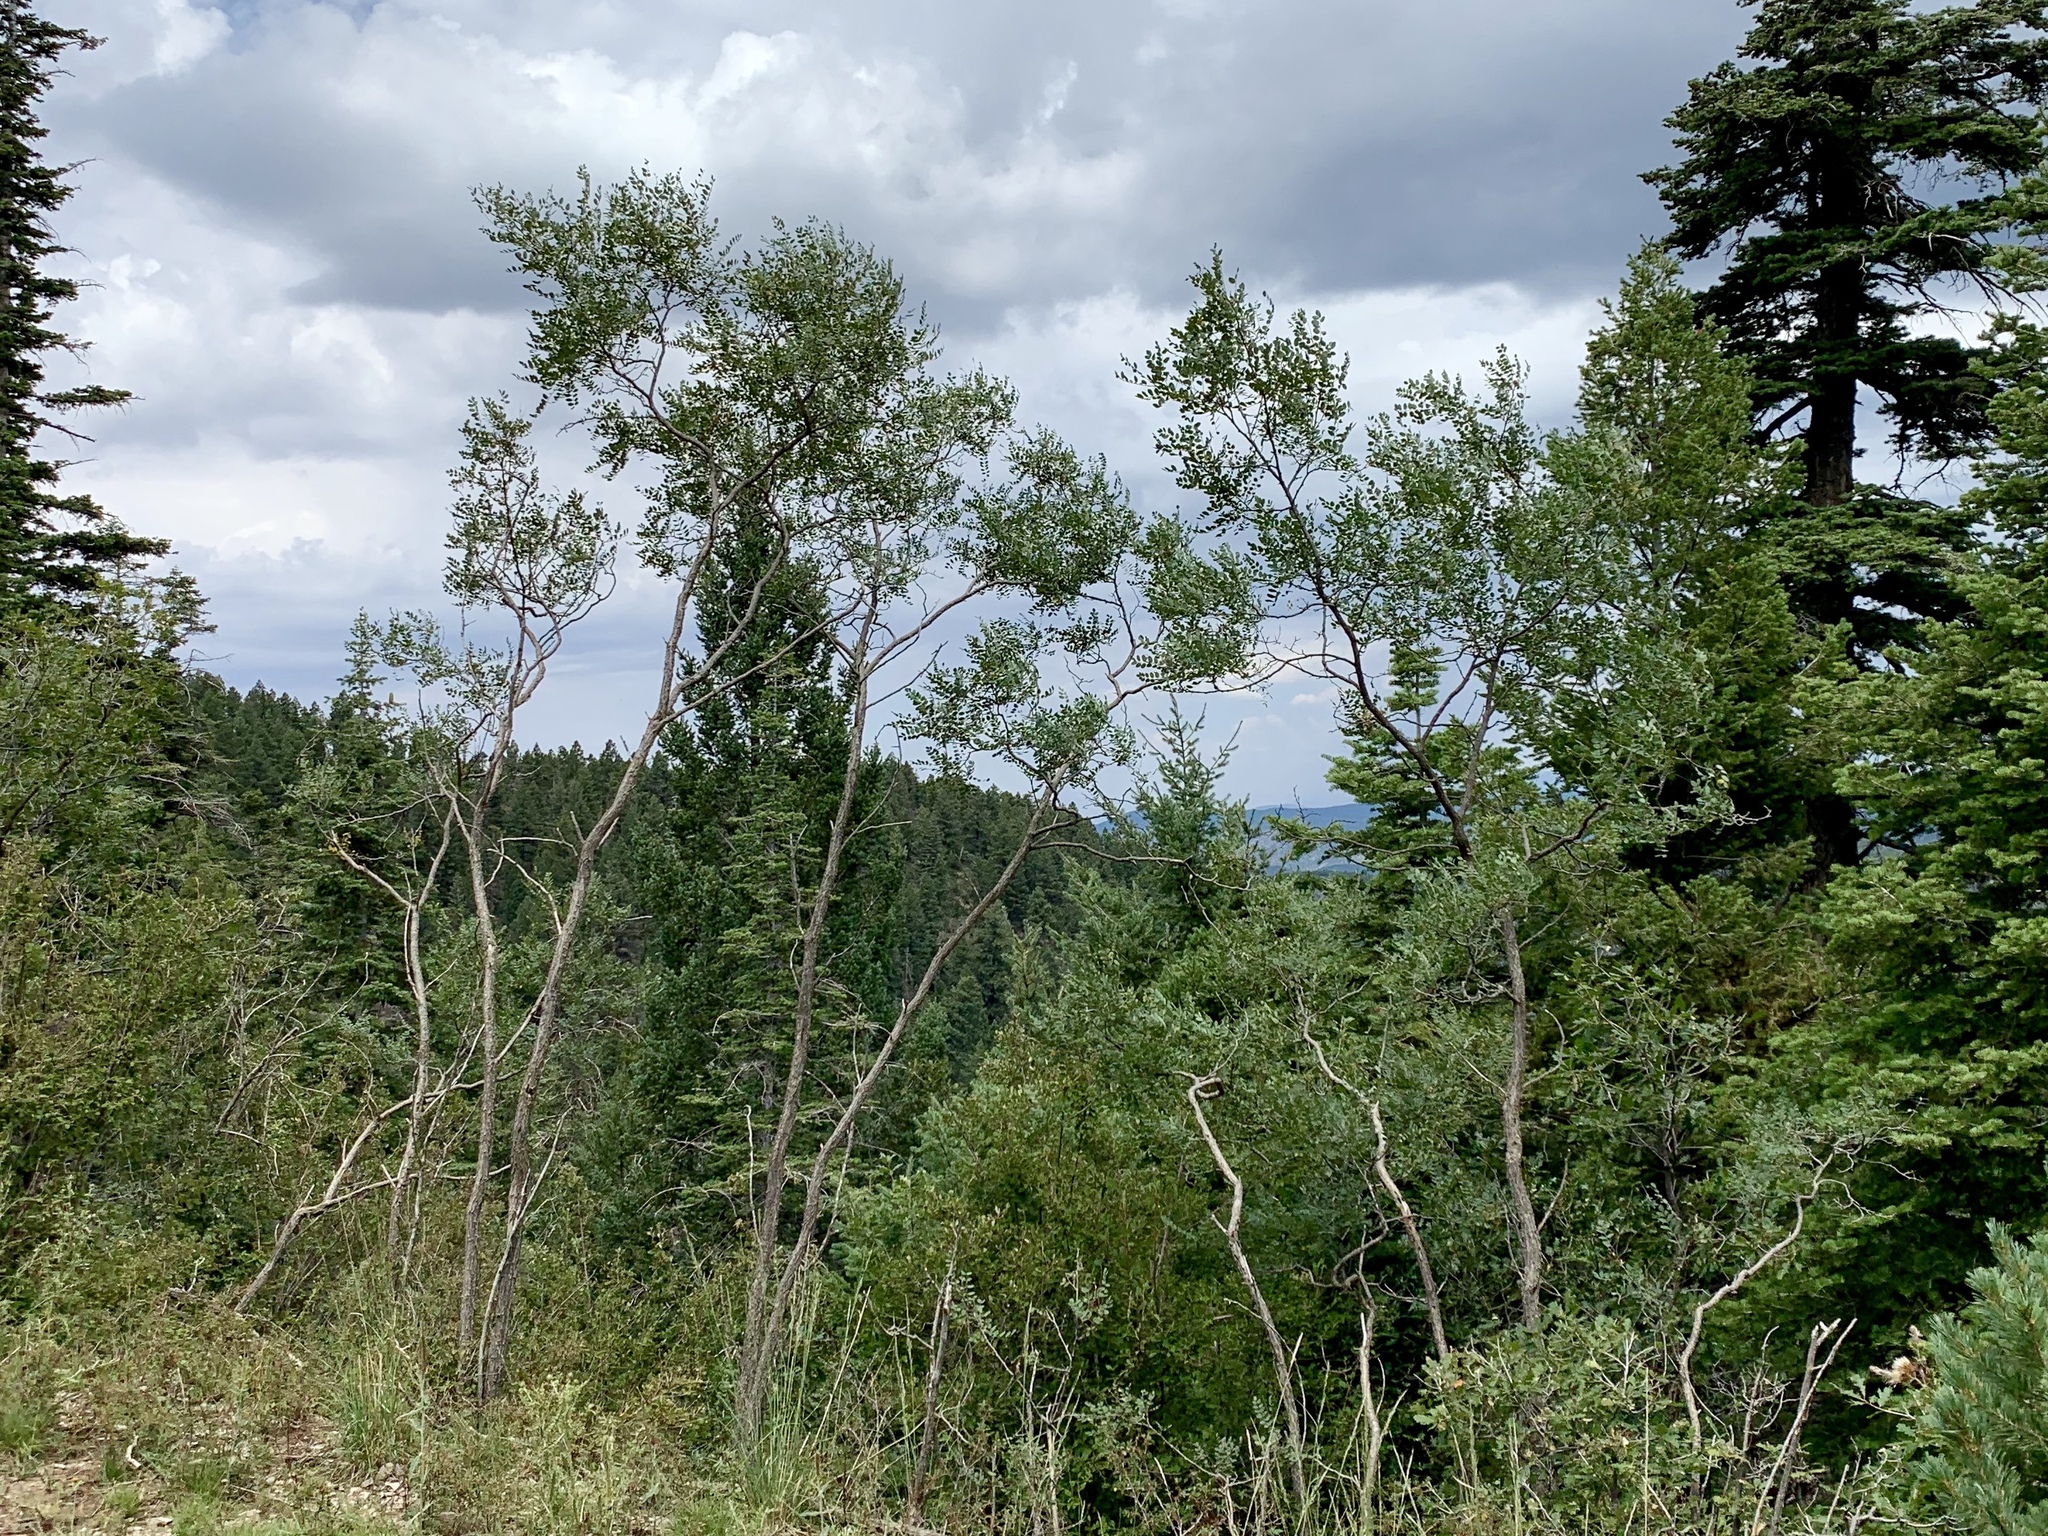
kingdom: Plantae
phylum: Tracheophyta
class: Magnoliopsida
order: Fabales
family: Fabaceae
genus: Robinia
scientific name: Robinia neomexicana
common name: New mexico locust
